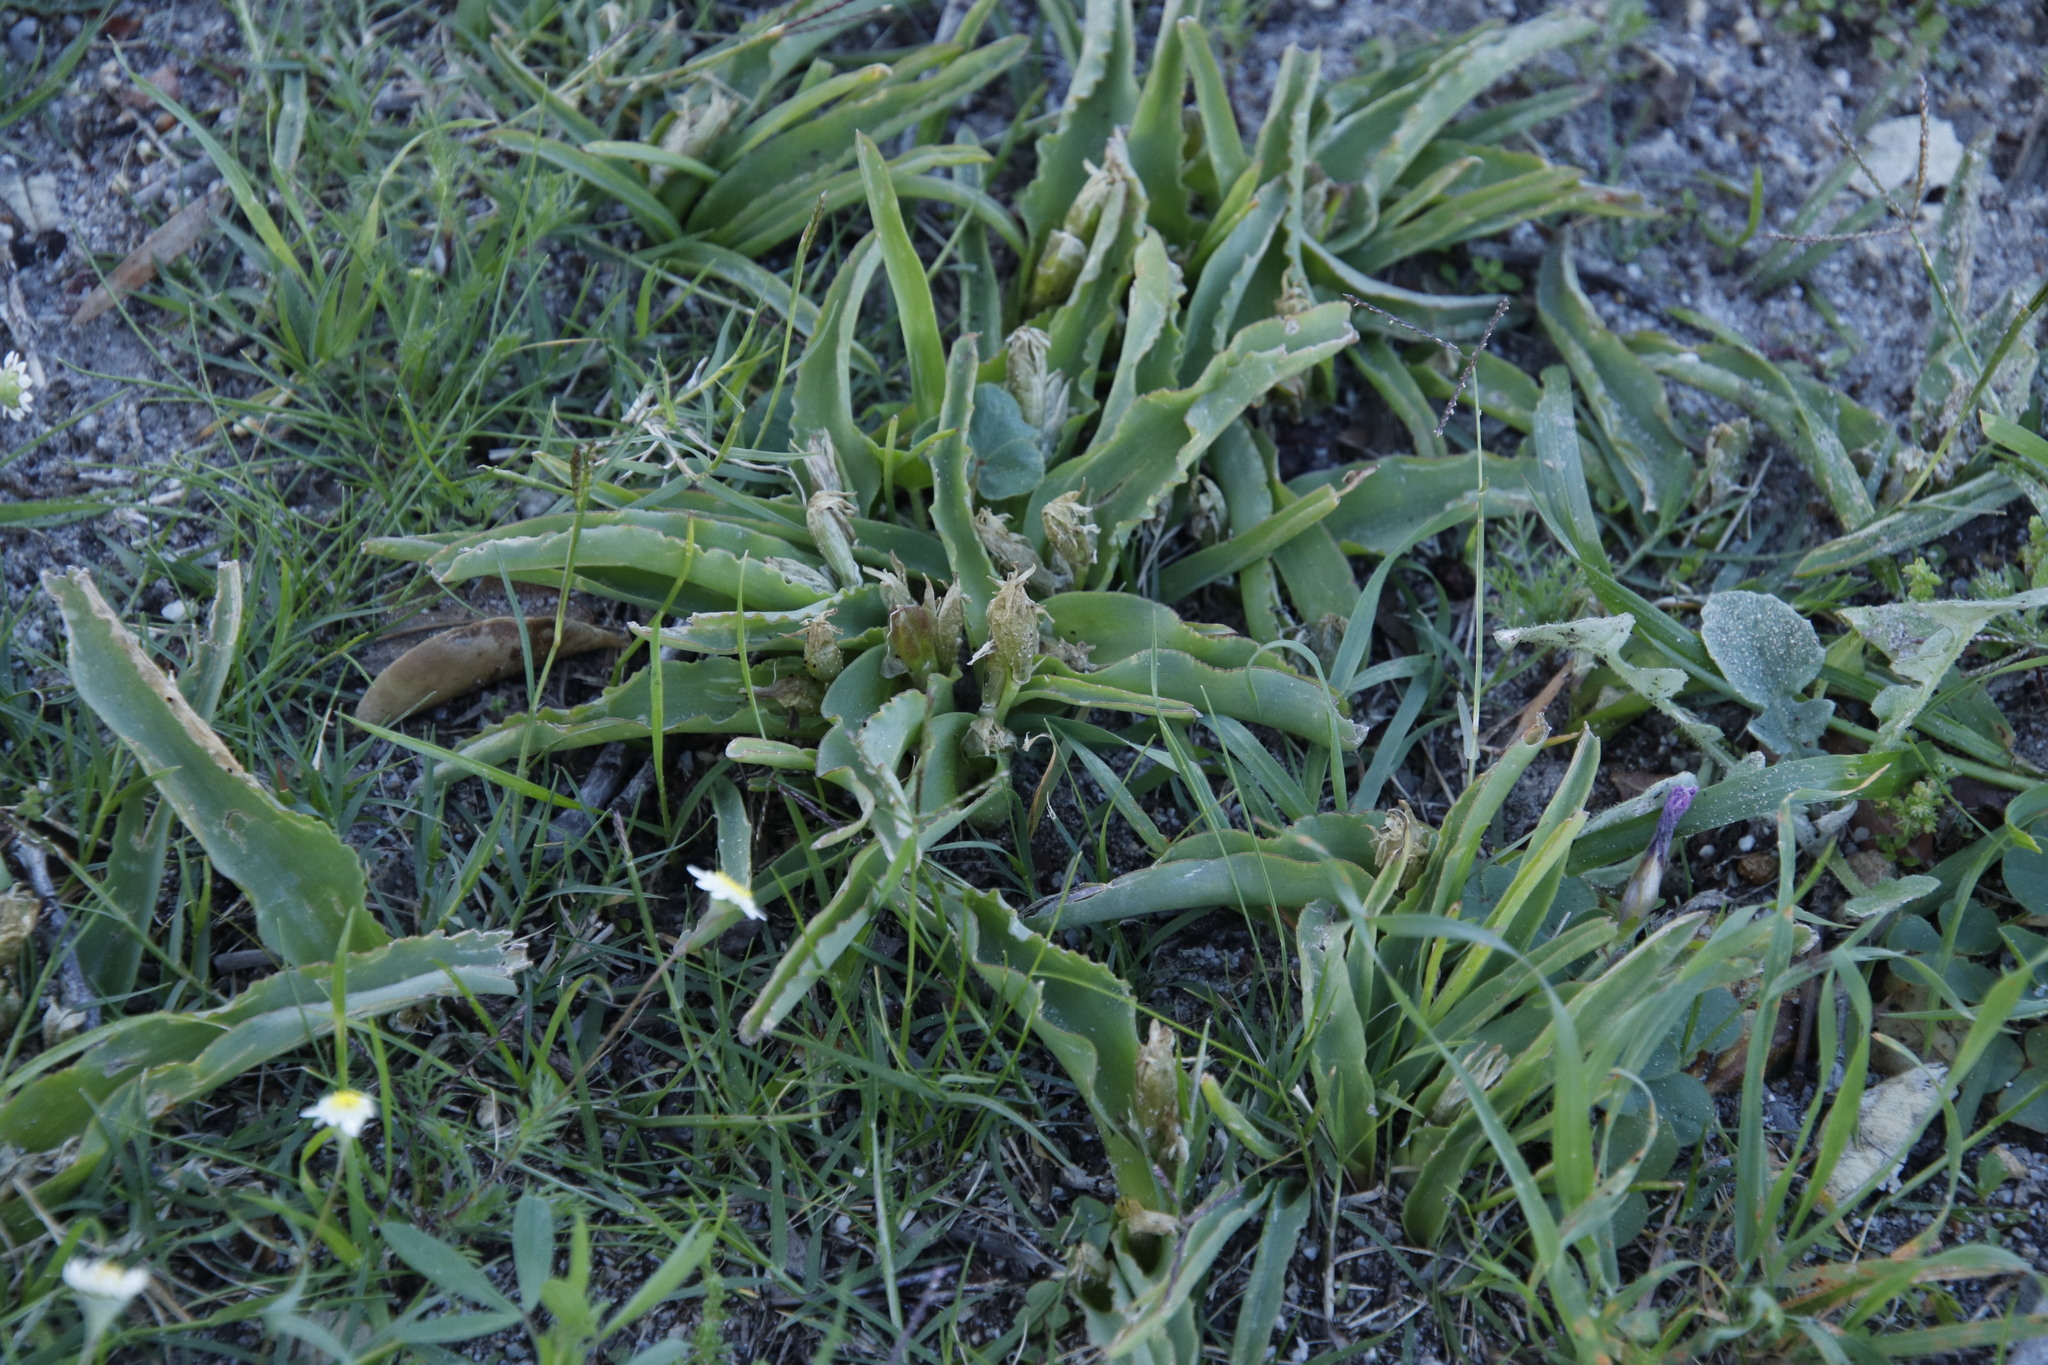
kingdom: Plantae
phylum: Tracheophyta
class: Liliopsida
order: Asparagales
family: Asparagaceae
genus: Lachenalia
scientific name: Lachenalia reflexa
